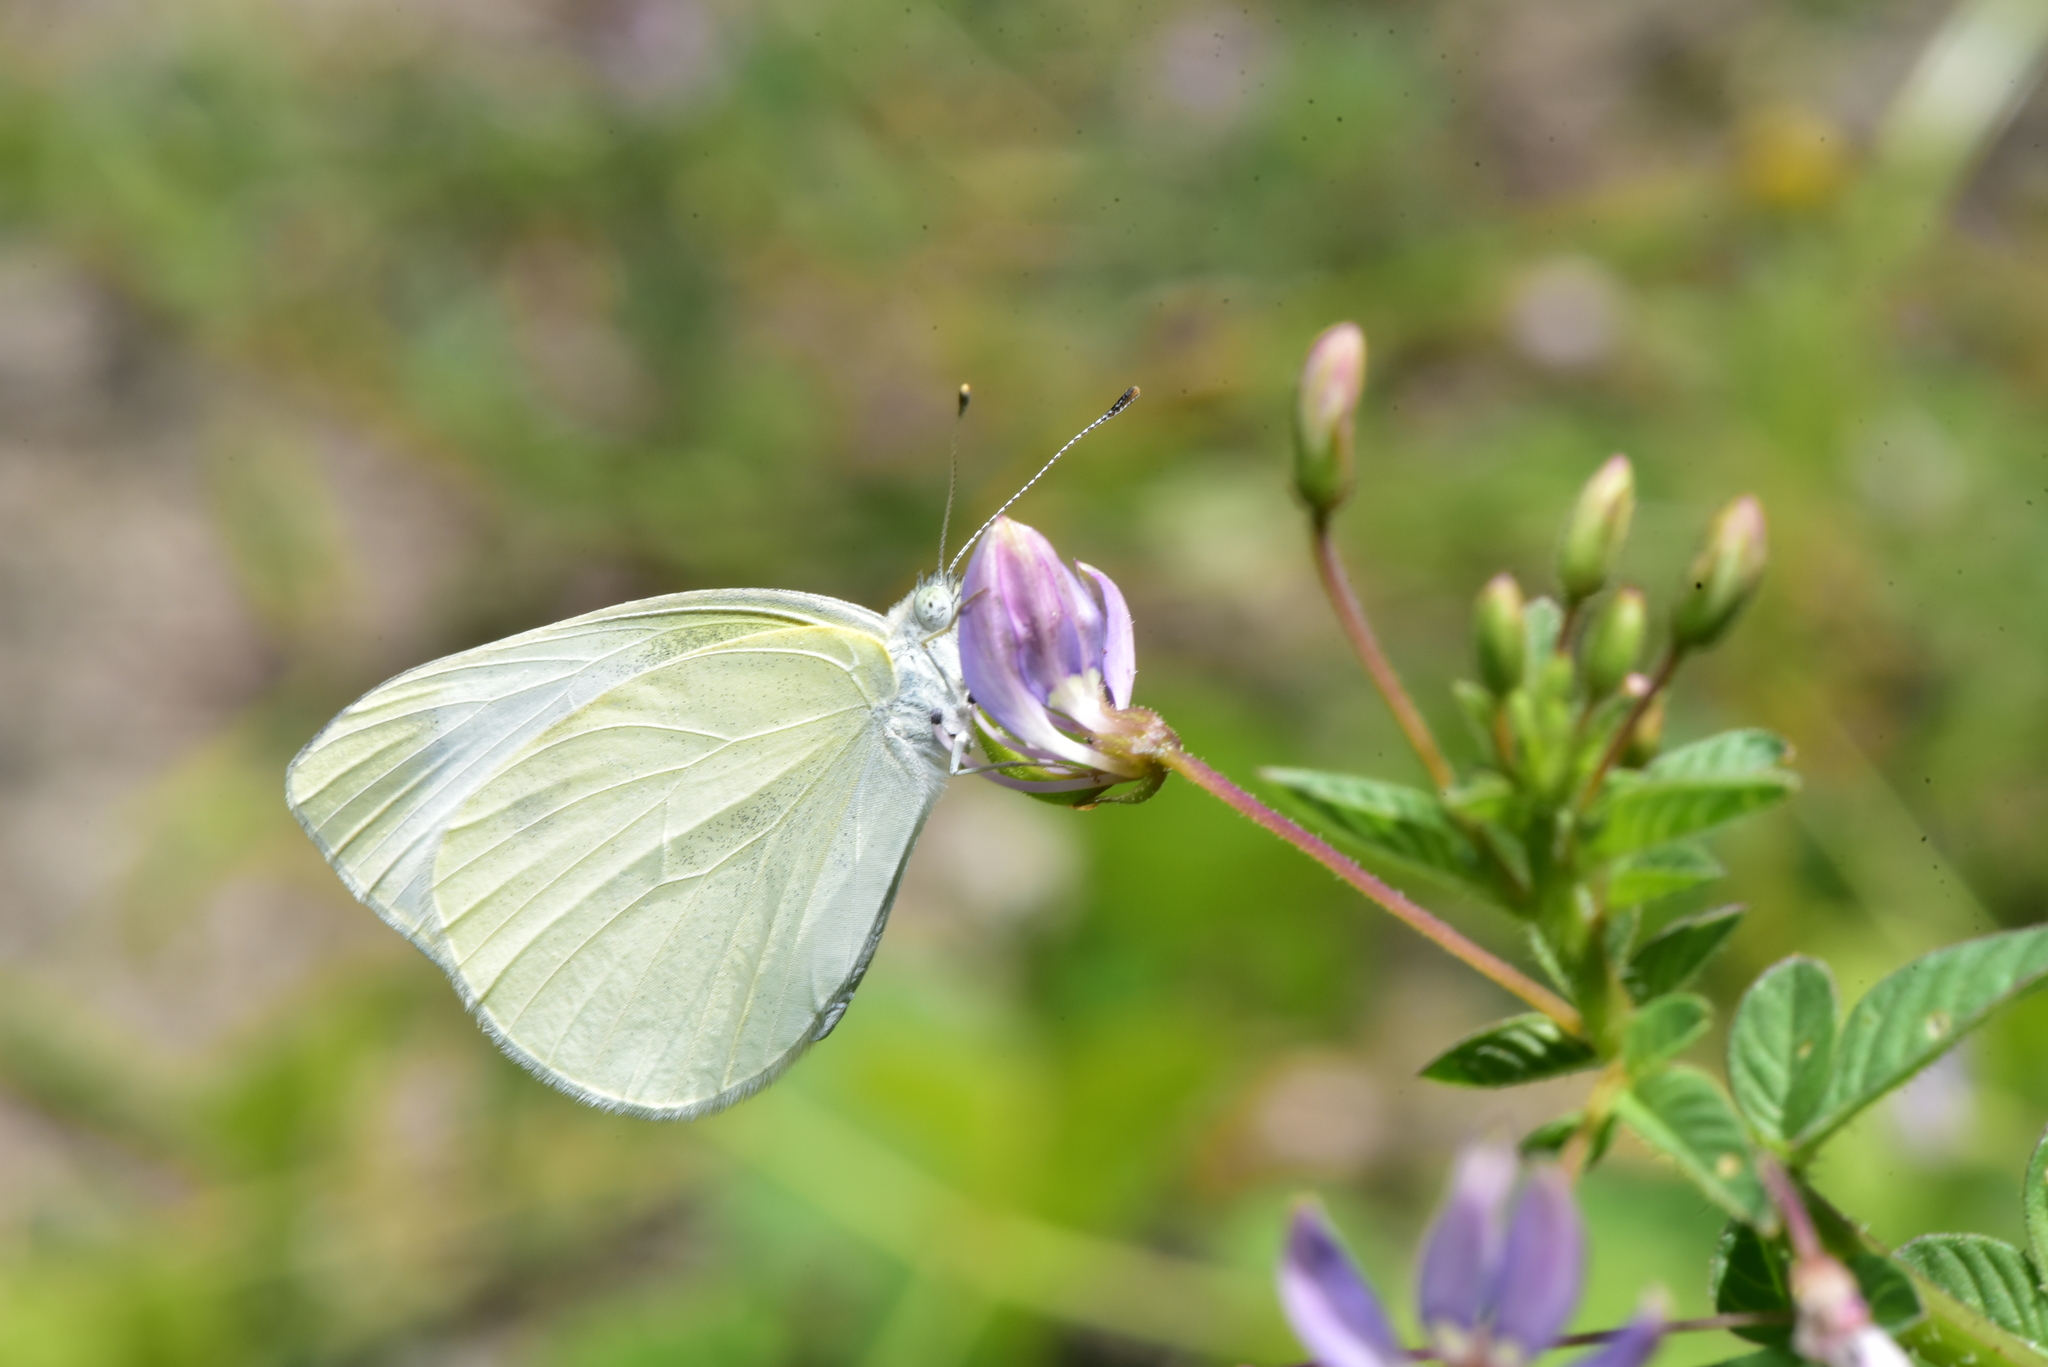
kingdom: Animalia
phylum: Arthropoda
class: Insecta
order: Lepidoptera
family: Pieridae
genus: Pieris
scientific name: Pieris rapae
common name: Small white
